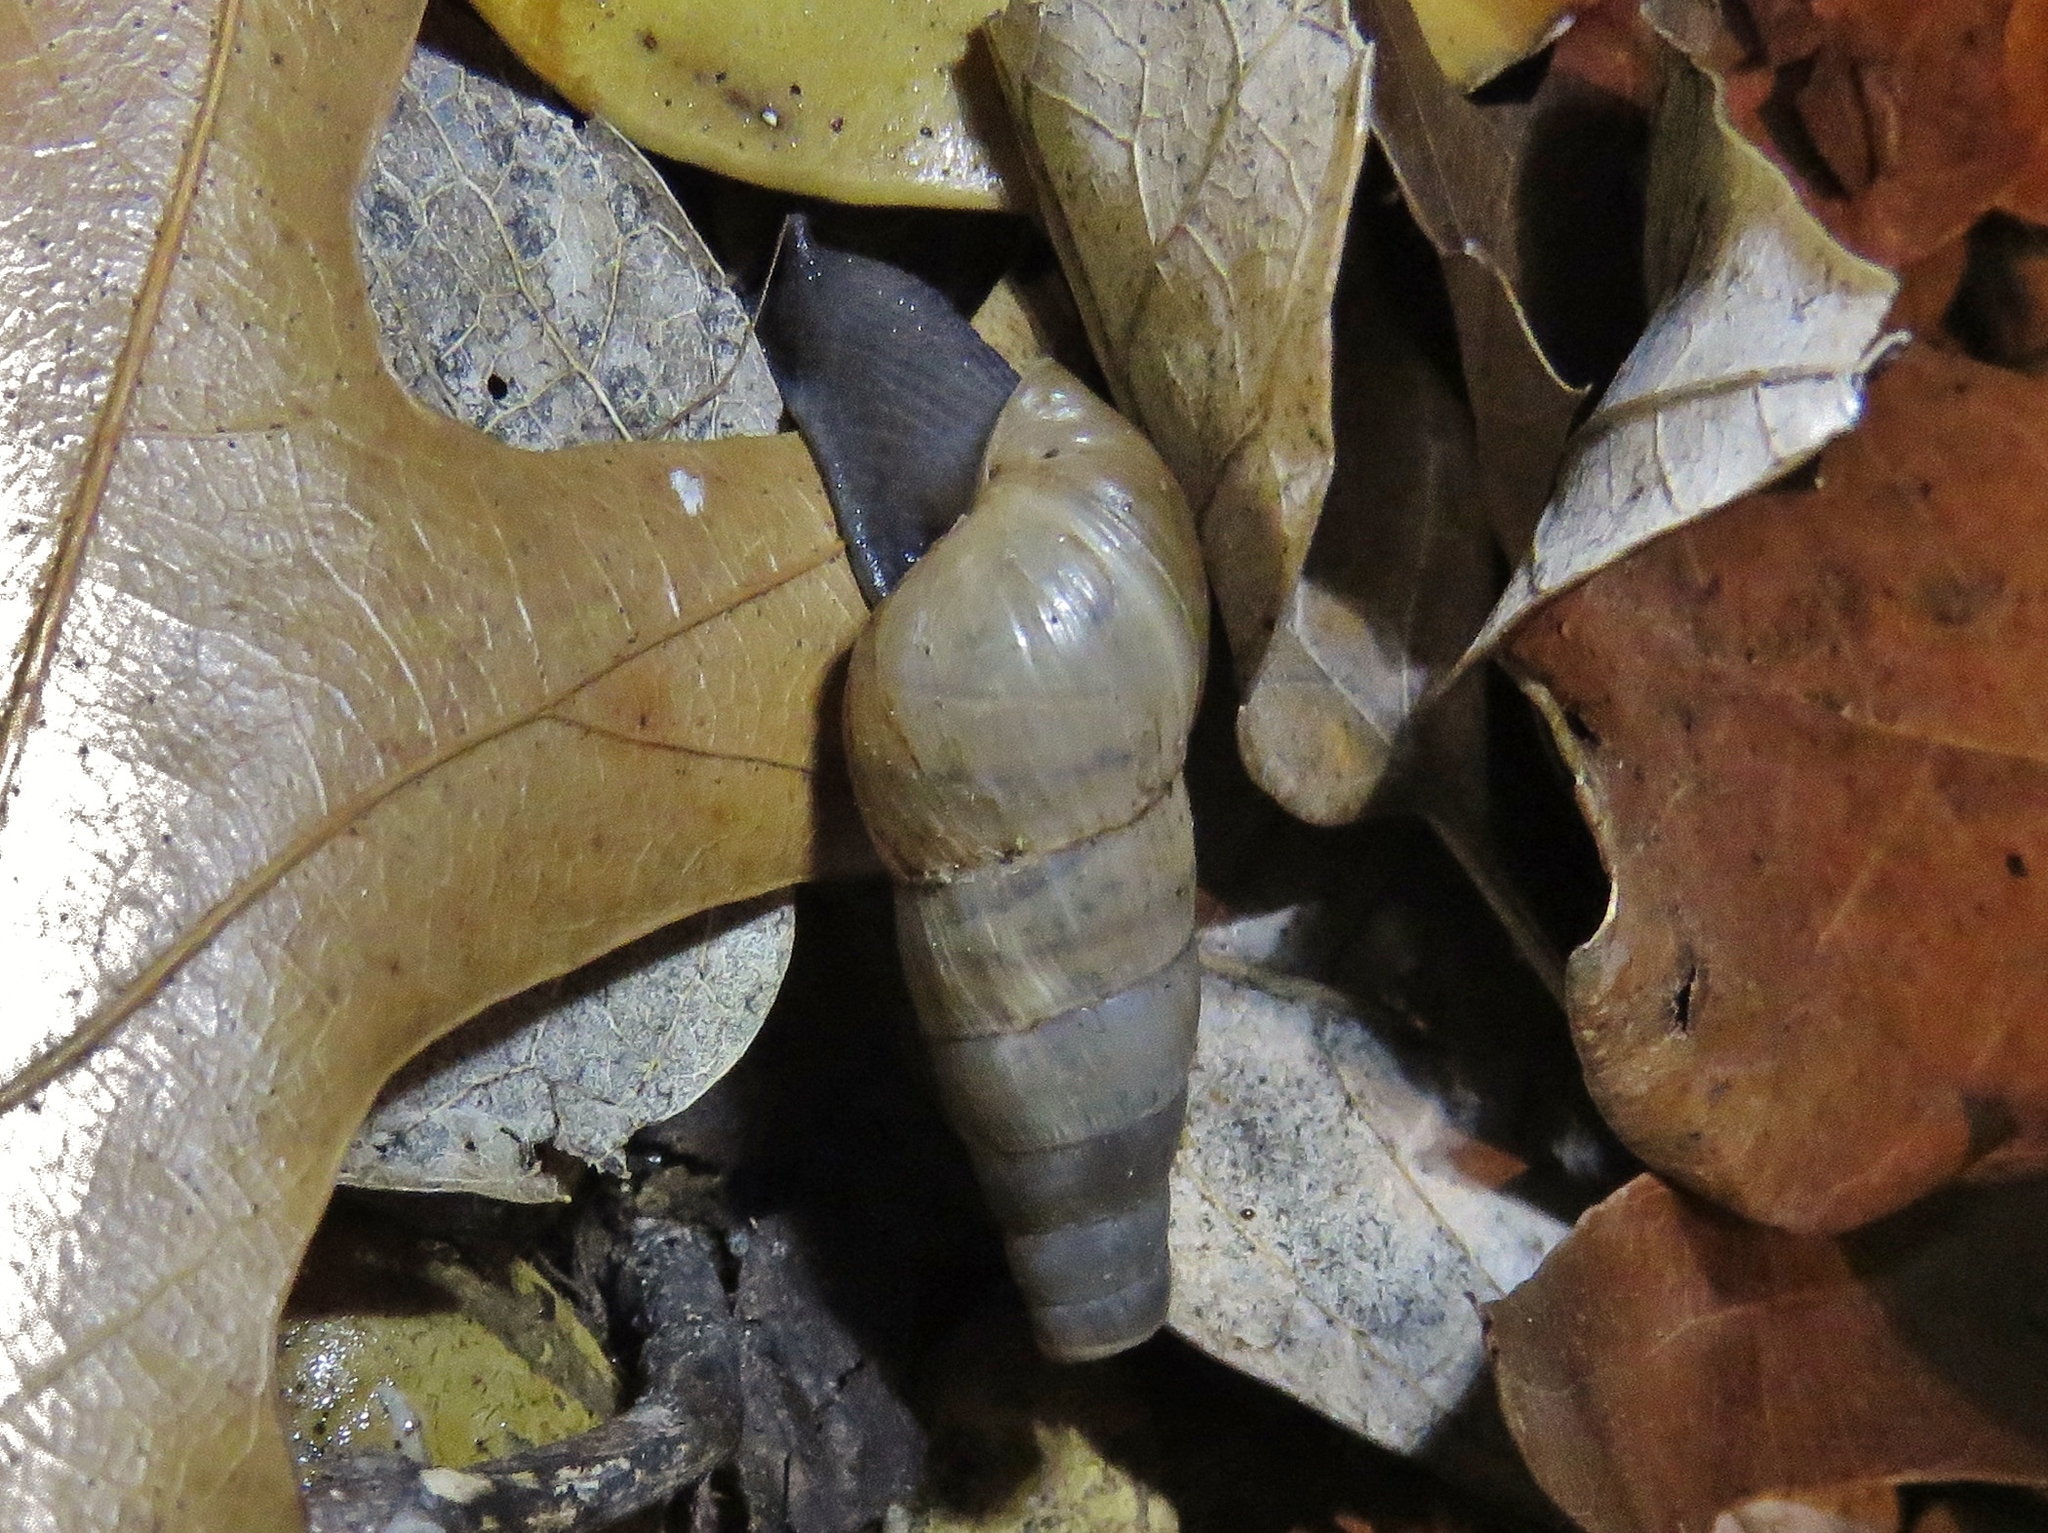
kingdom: Animalia
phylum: Mollusca
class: Gastropoda
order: Stylommatophora
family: Achatinidae
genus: Rumina
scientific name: Rumina decollata
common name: Decollate snail
